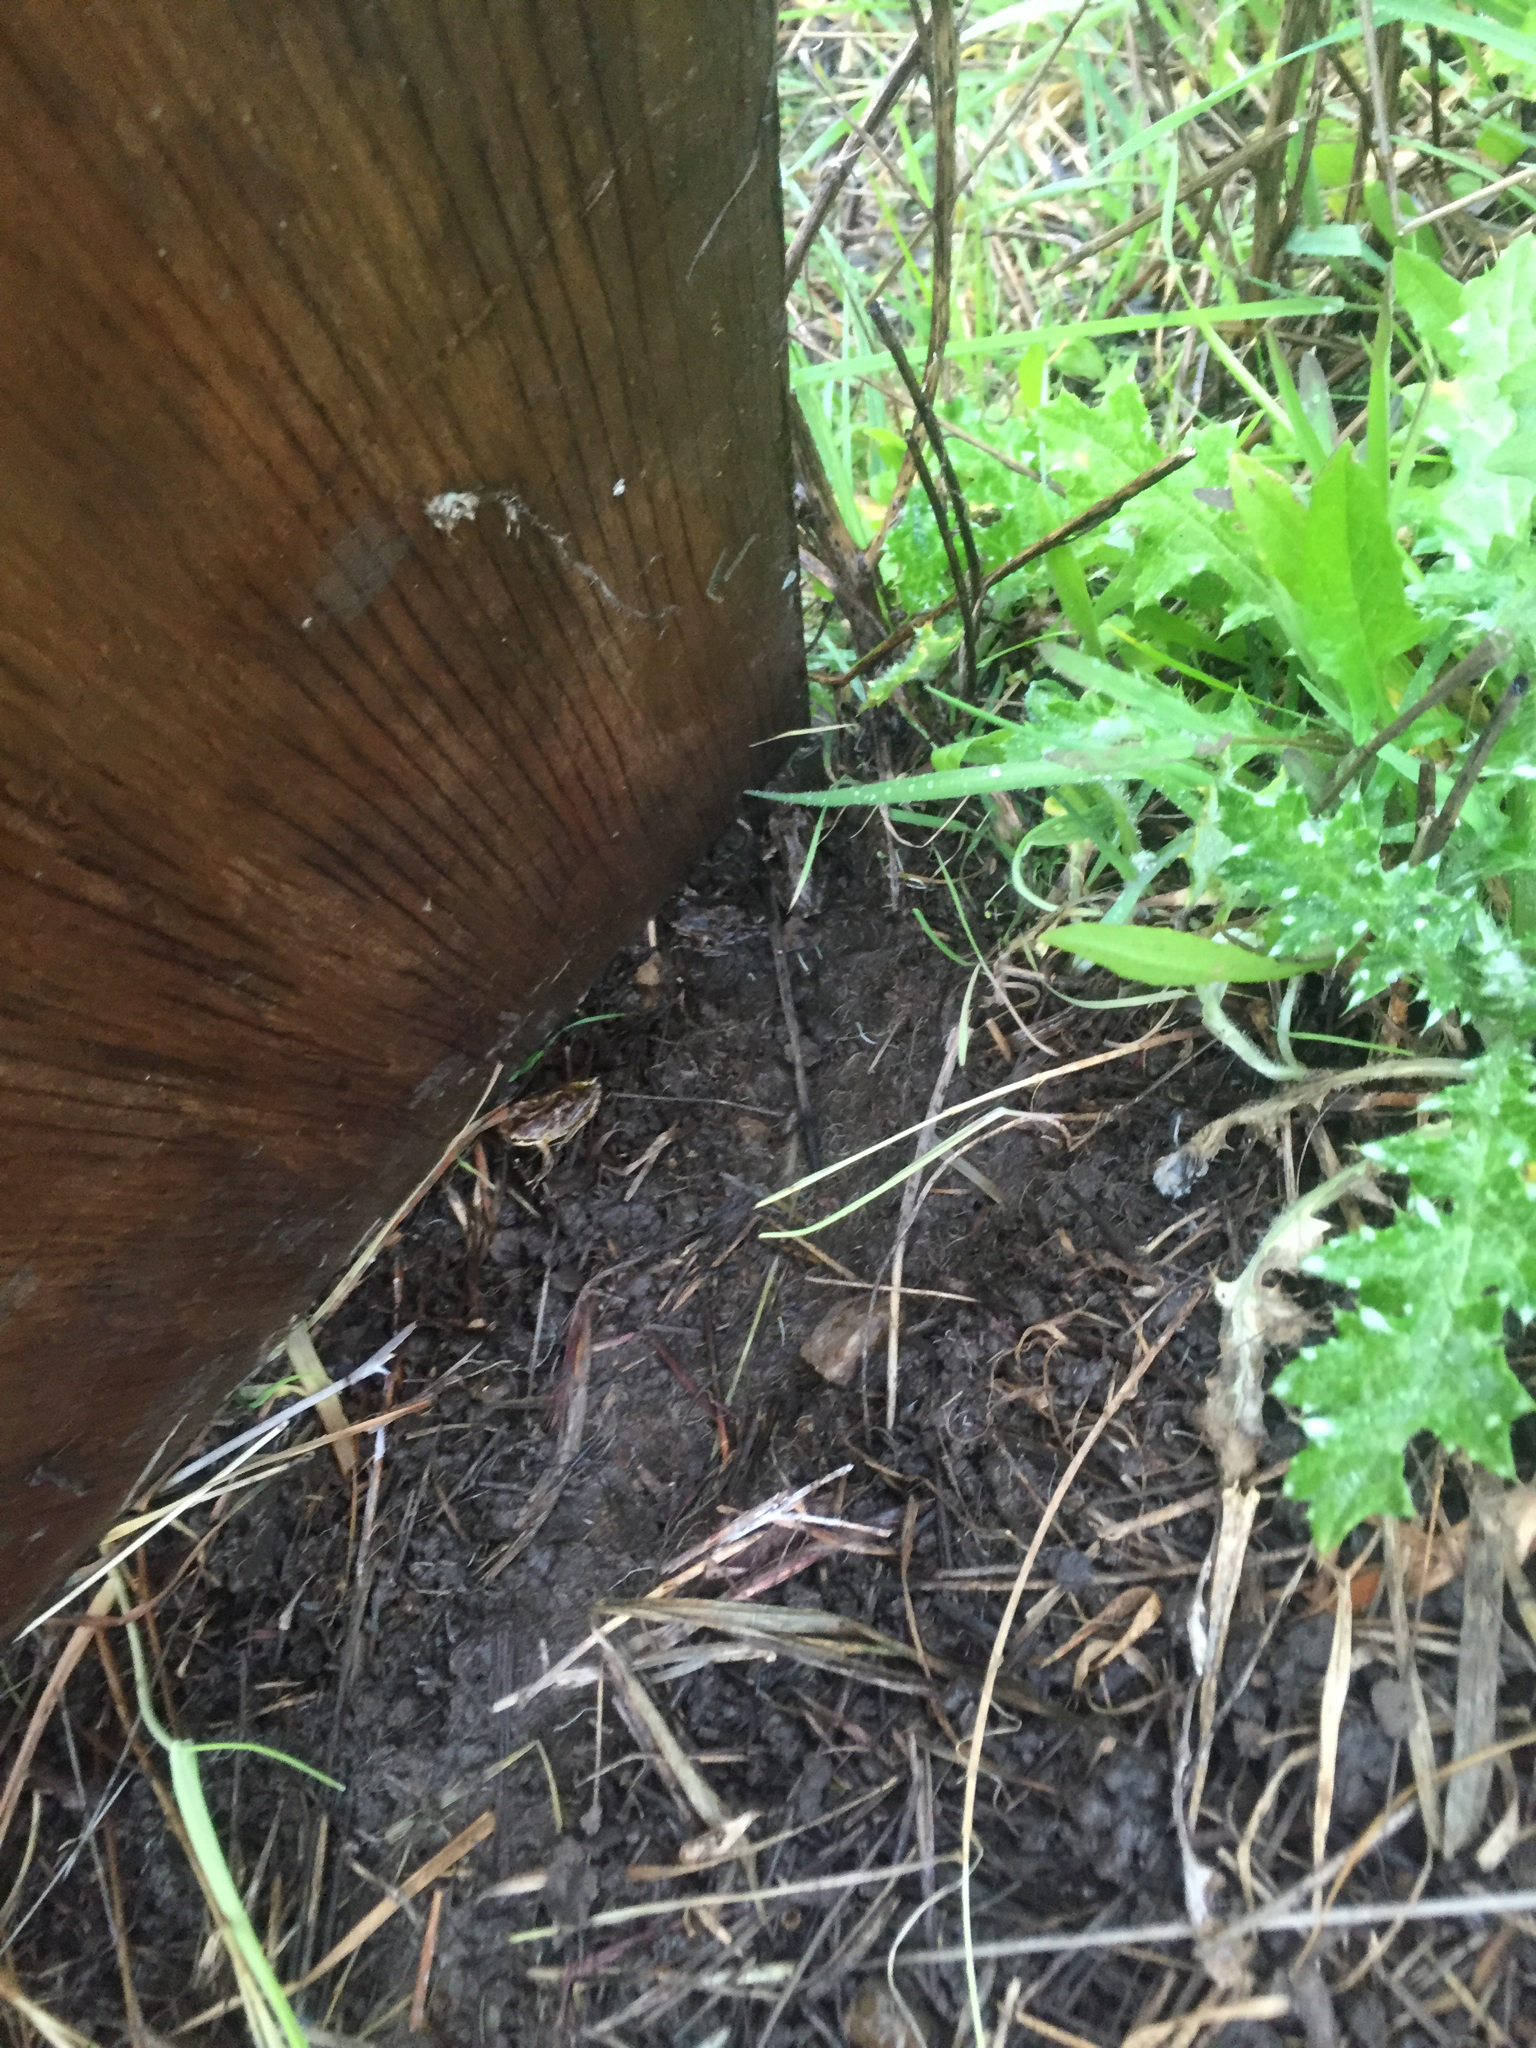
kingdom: Animalia
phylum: Chordata
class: Amphibia
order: Anura
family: Hylidae
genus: Pseudacris
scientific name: Pseudacris regilla
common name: Pacific chorus frog
